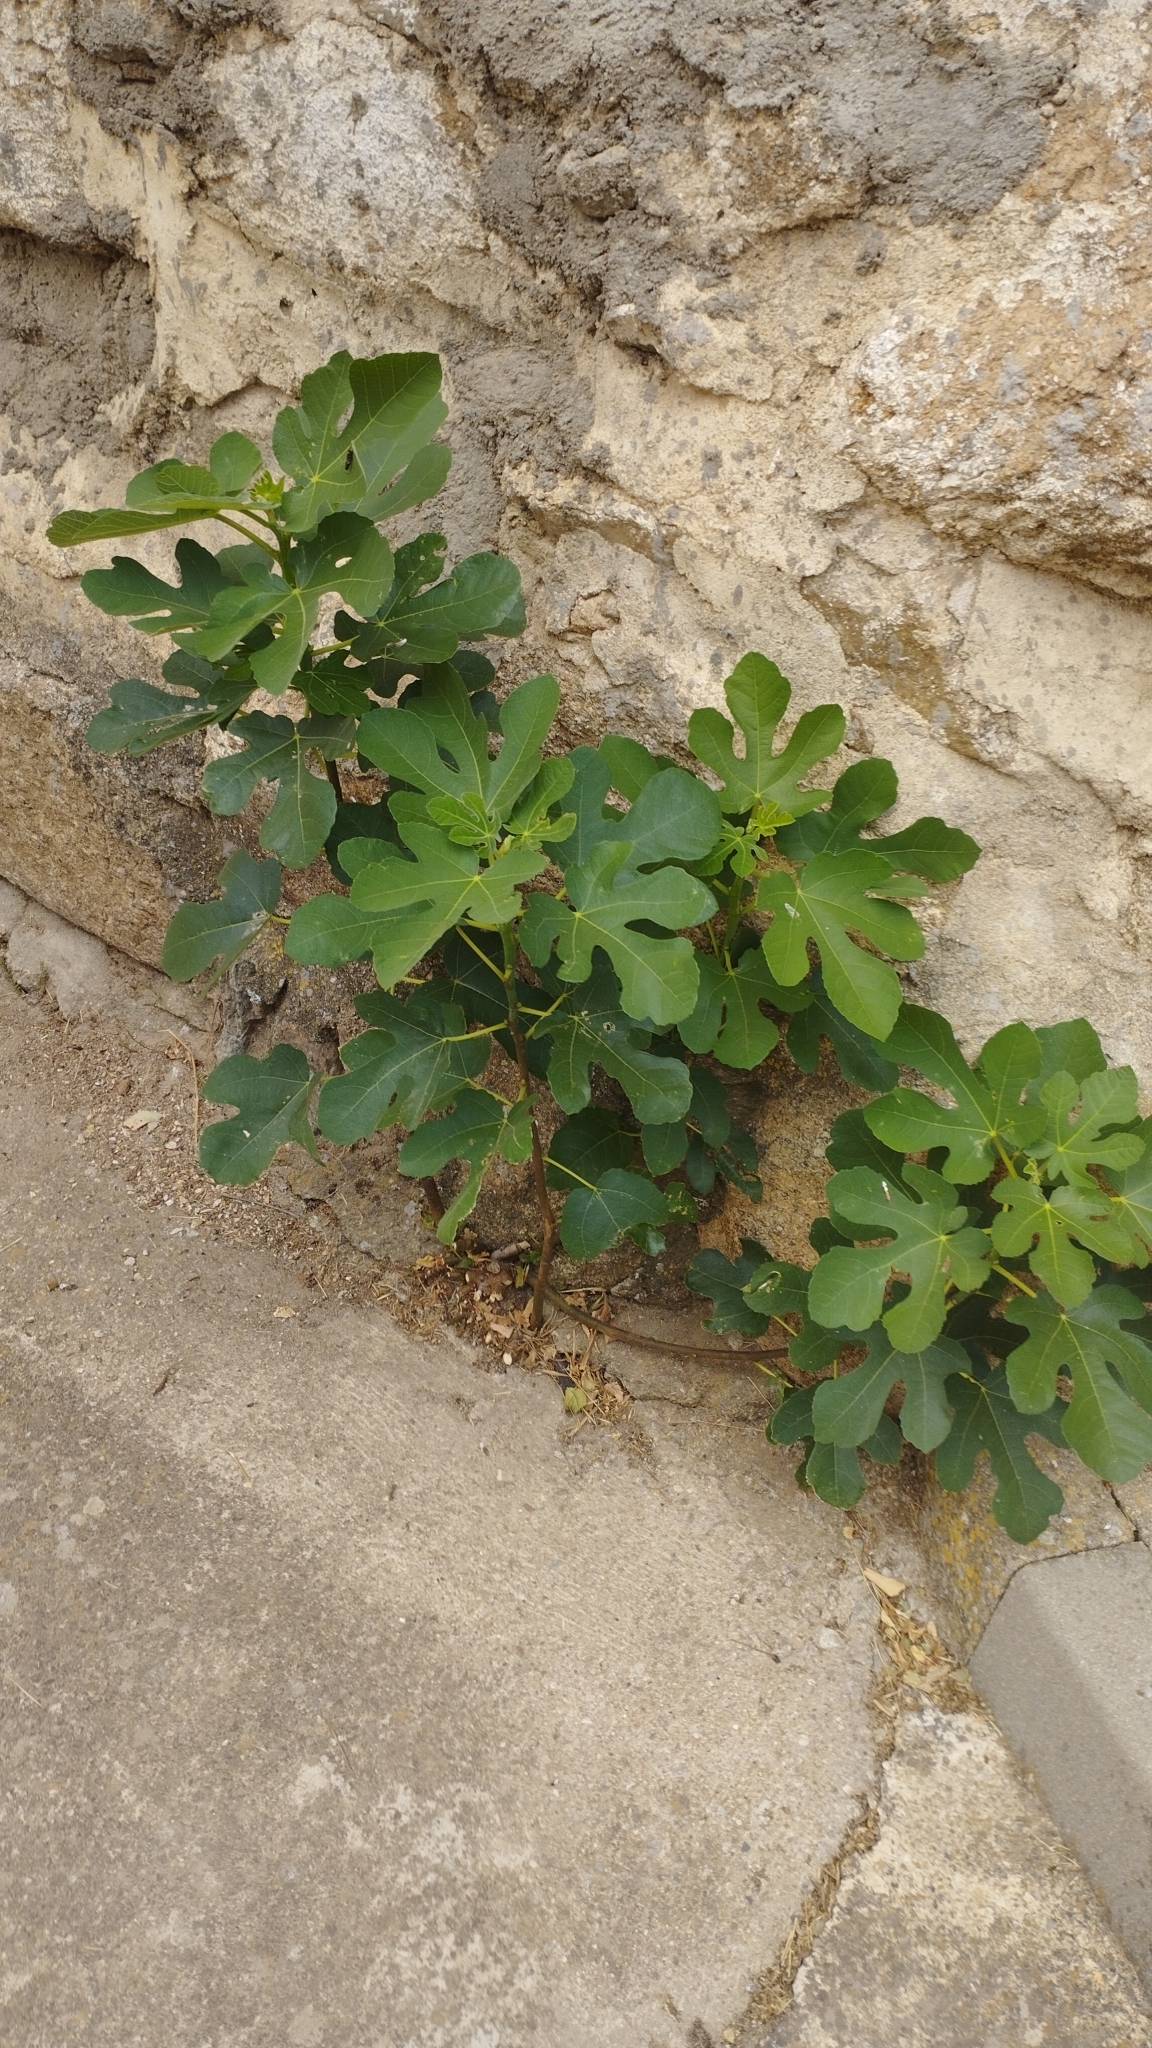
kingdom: Plantae
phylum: Tracheophyta
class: Magnoliopsida
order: Rosales
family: Moraceae
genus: Ficus
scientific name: Ficus carica
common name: Fig
